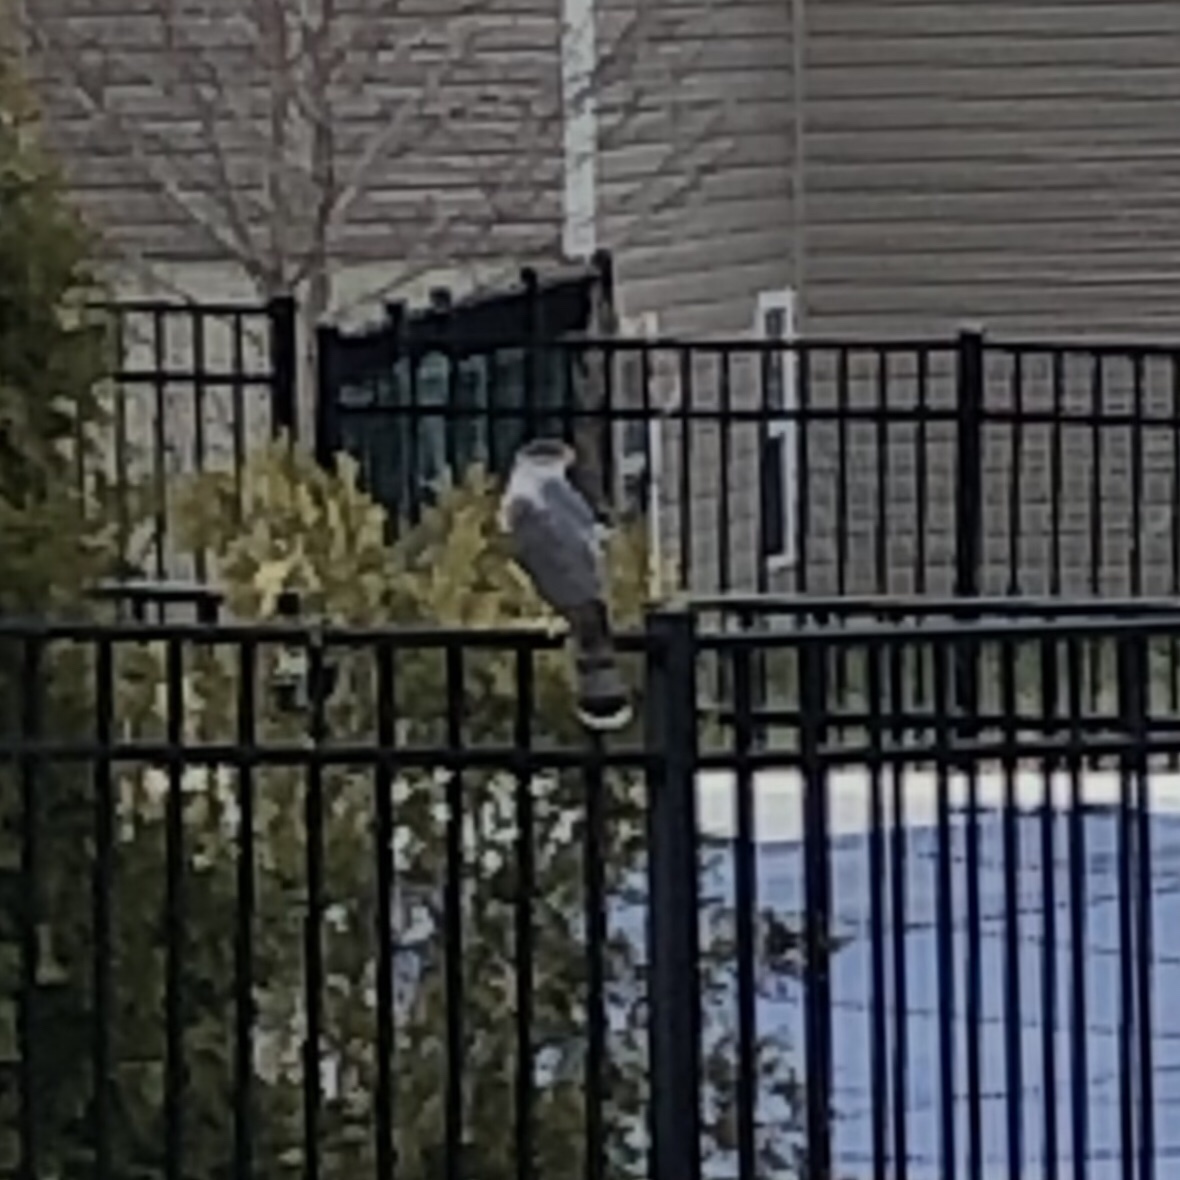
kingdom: Animalia
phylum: Chordata
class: Aves
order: Accipitriformes
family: Accipitridae
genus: Accipiter
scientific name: Accipiter cooperii
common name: Cooper's hawk
